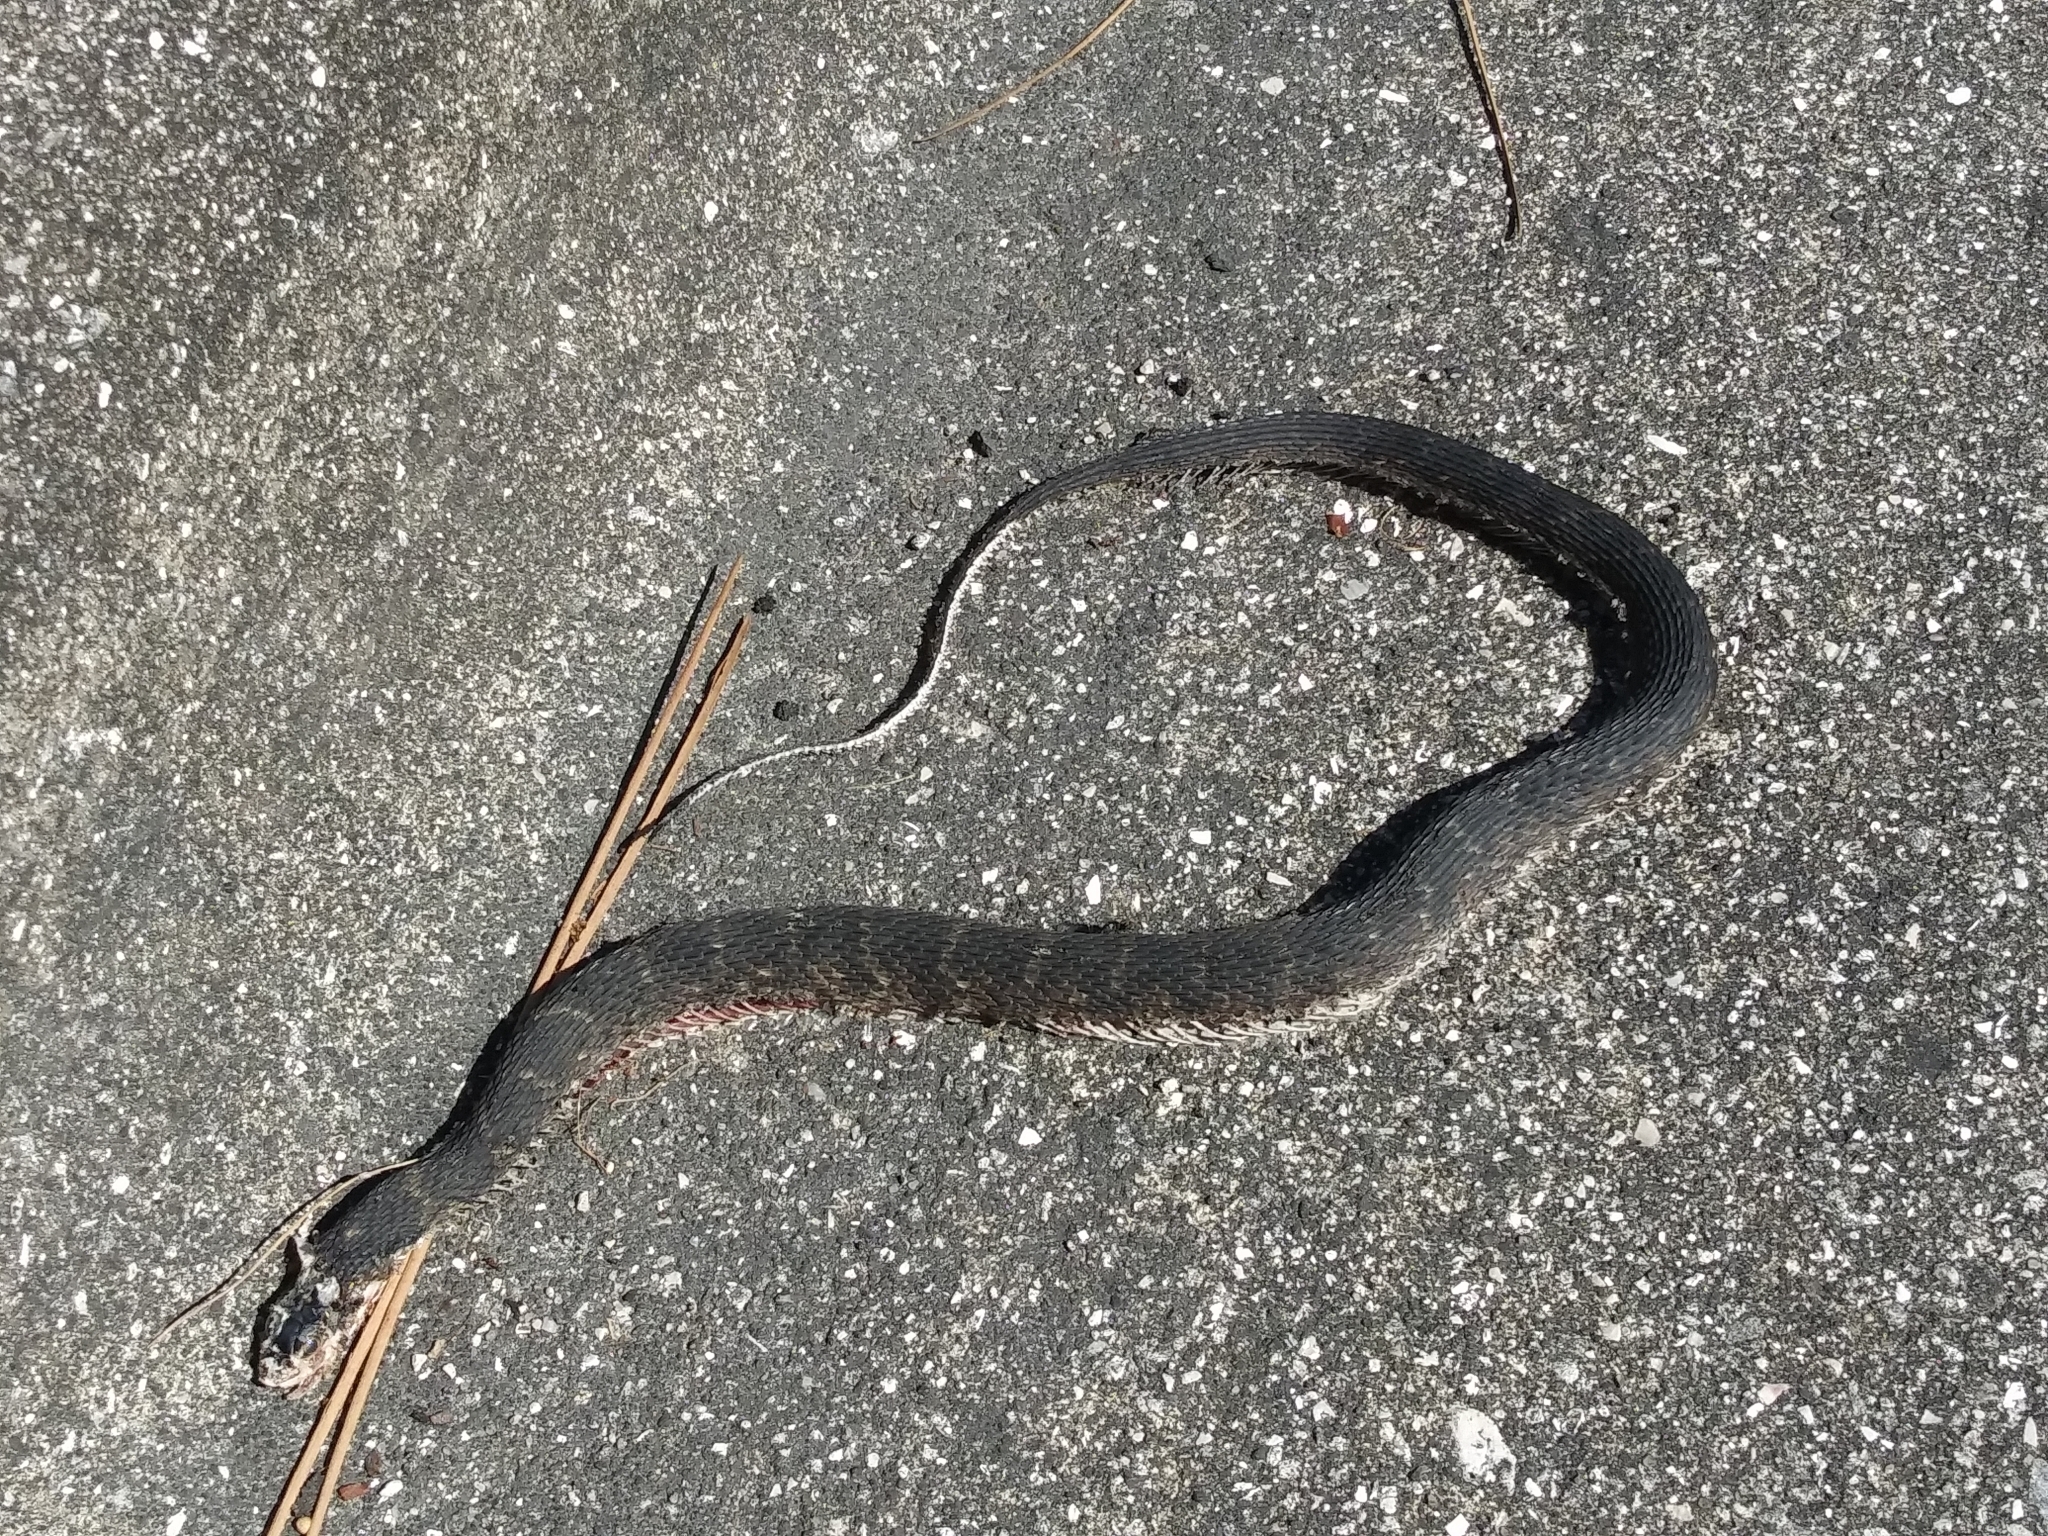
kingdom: Animalia
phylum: Chordata
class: Squamata
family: Colubridae
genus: Nerodia
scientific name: Nerodia fasciata
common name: Southern water snake
